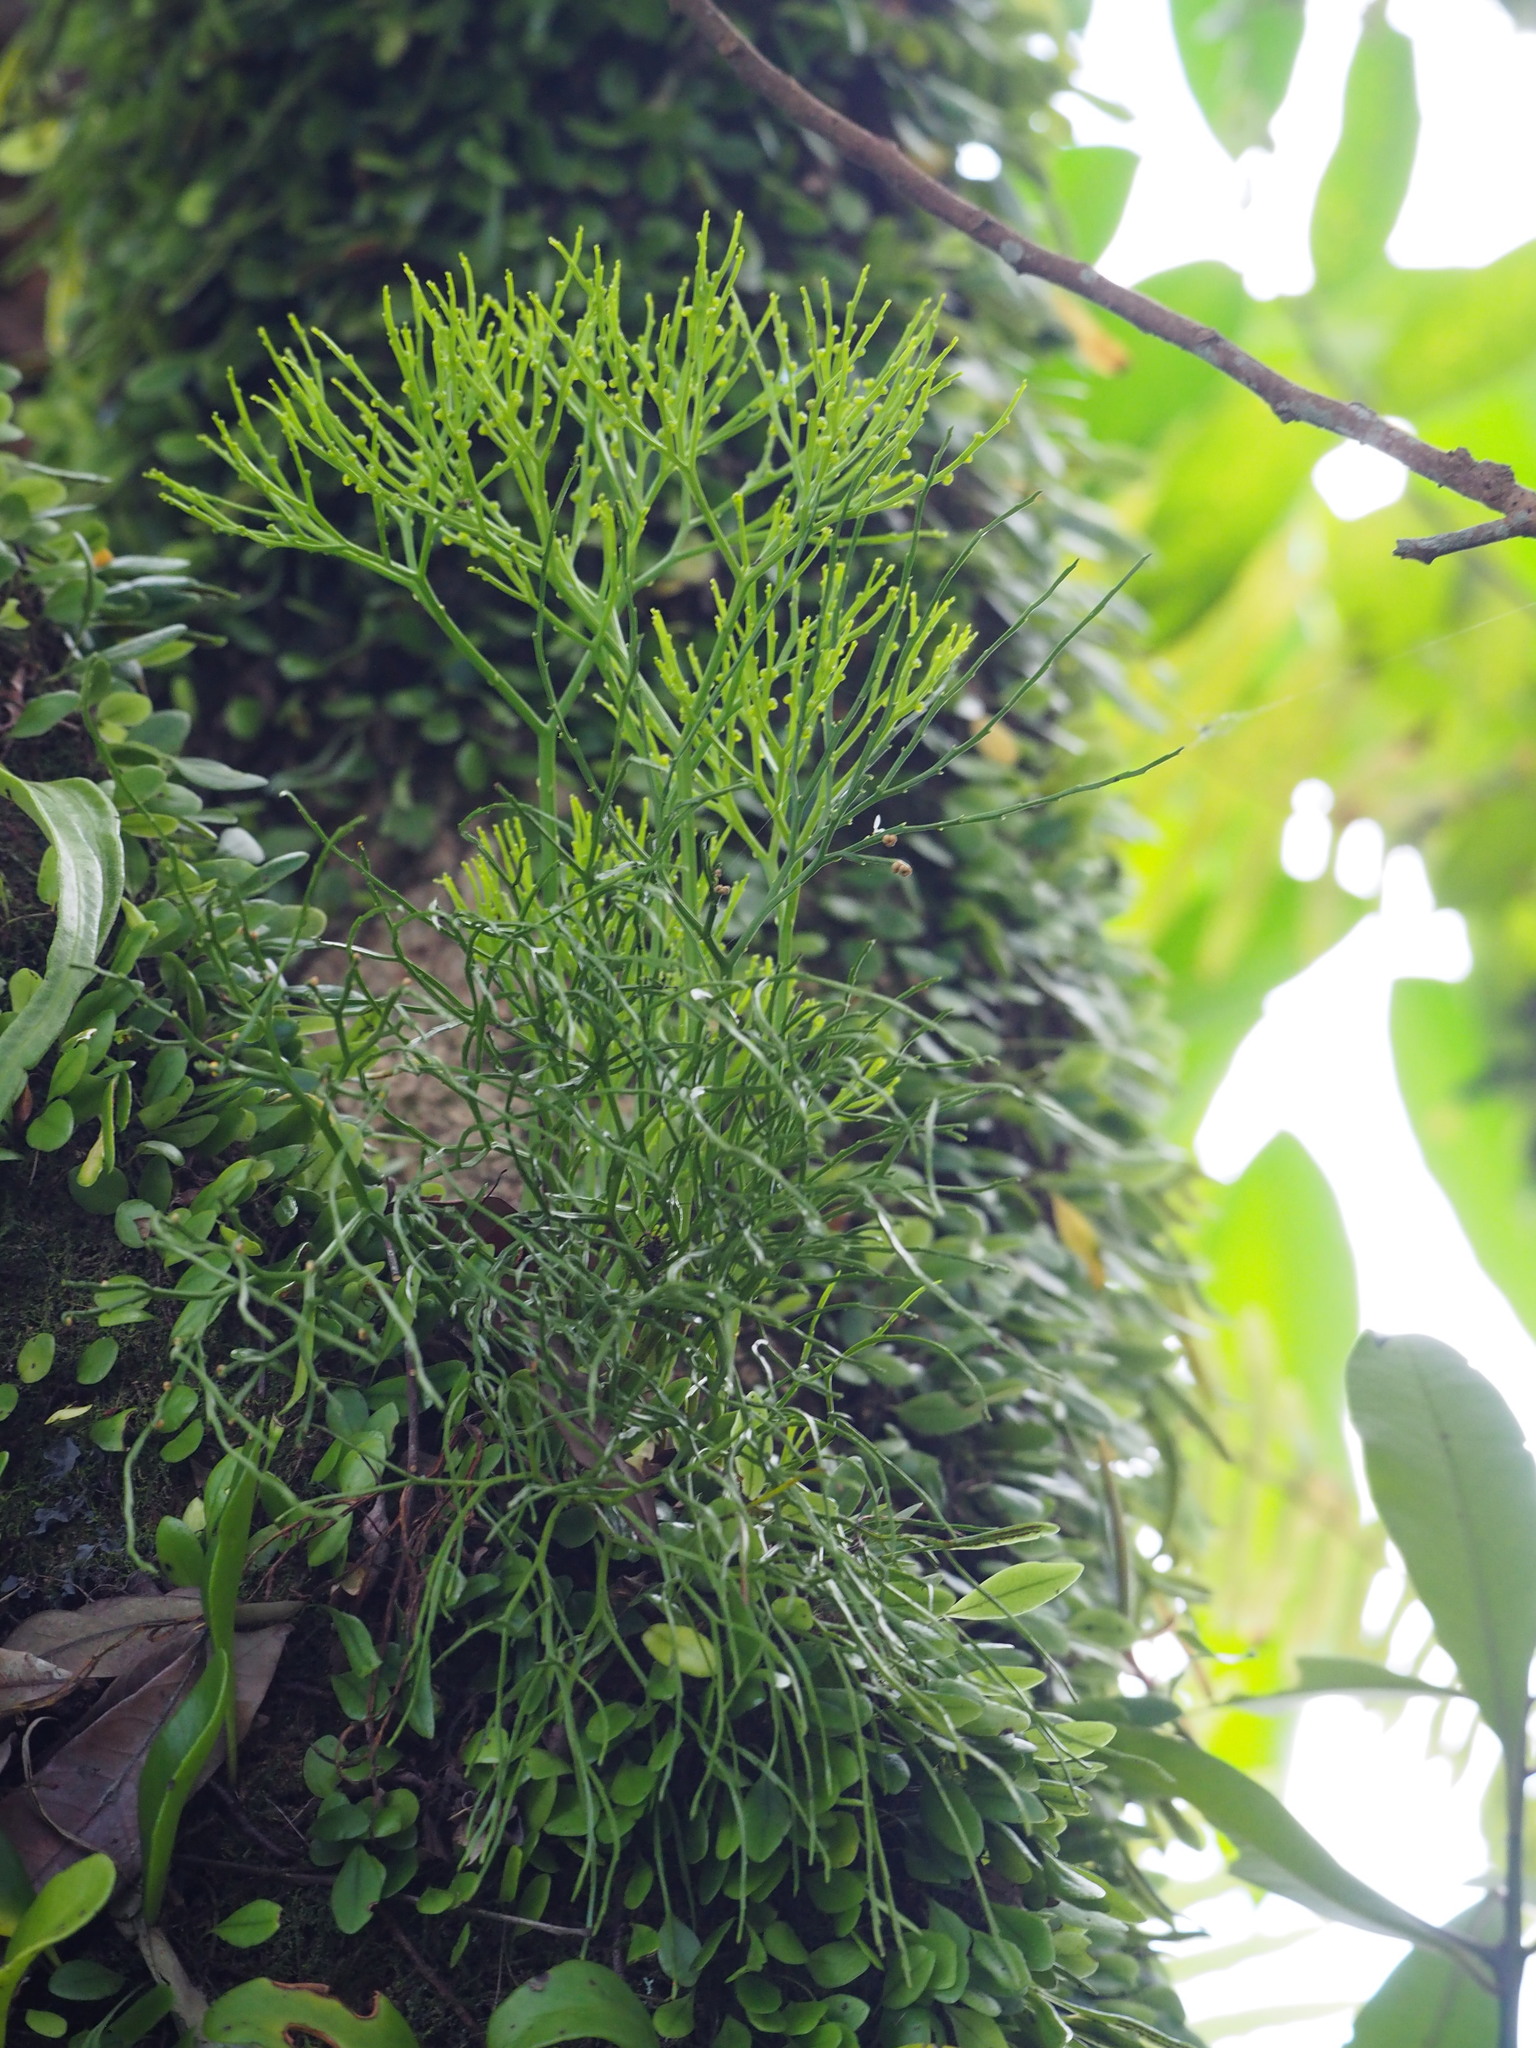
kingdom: Plantae
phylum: Tracheophyta
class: Polypodiopsida
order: Psilotales
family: Psilotaceae
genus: Psilotum
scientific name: Psilotum nudum
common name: Skeleton fork fern
